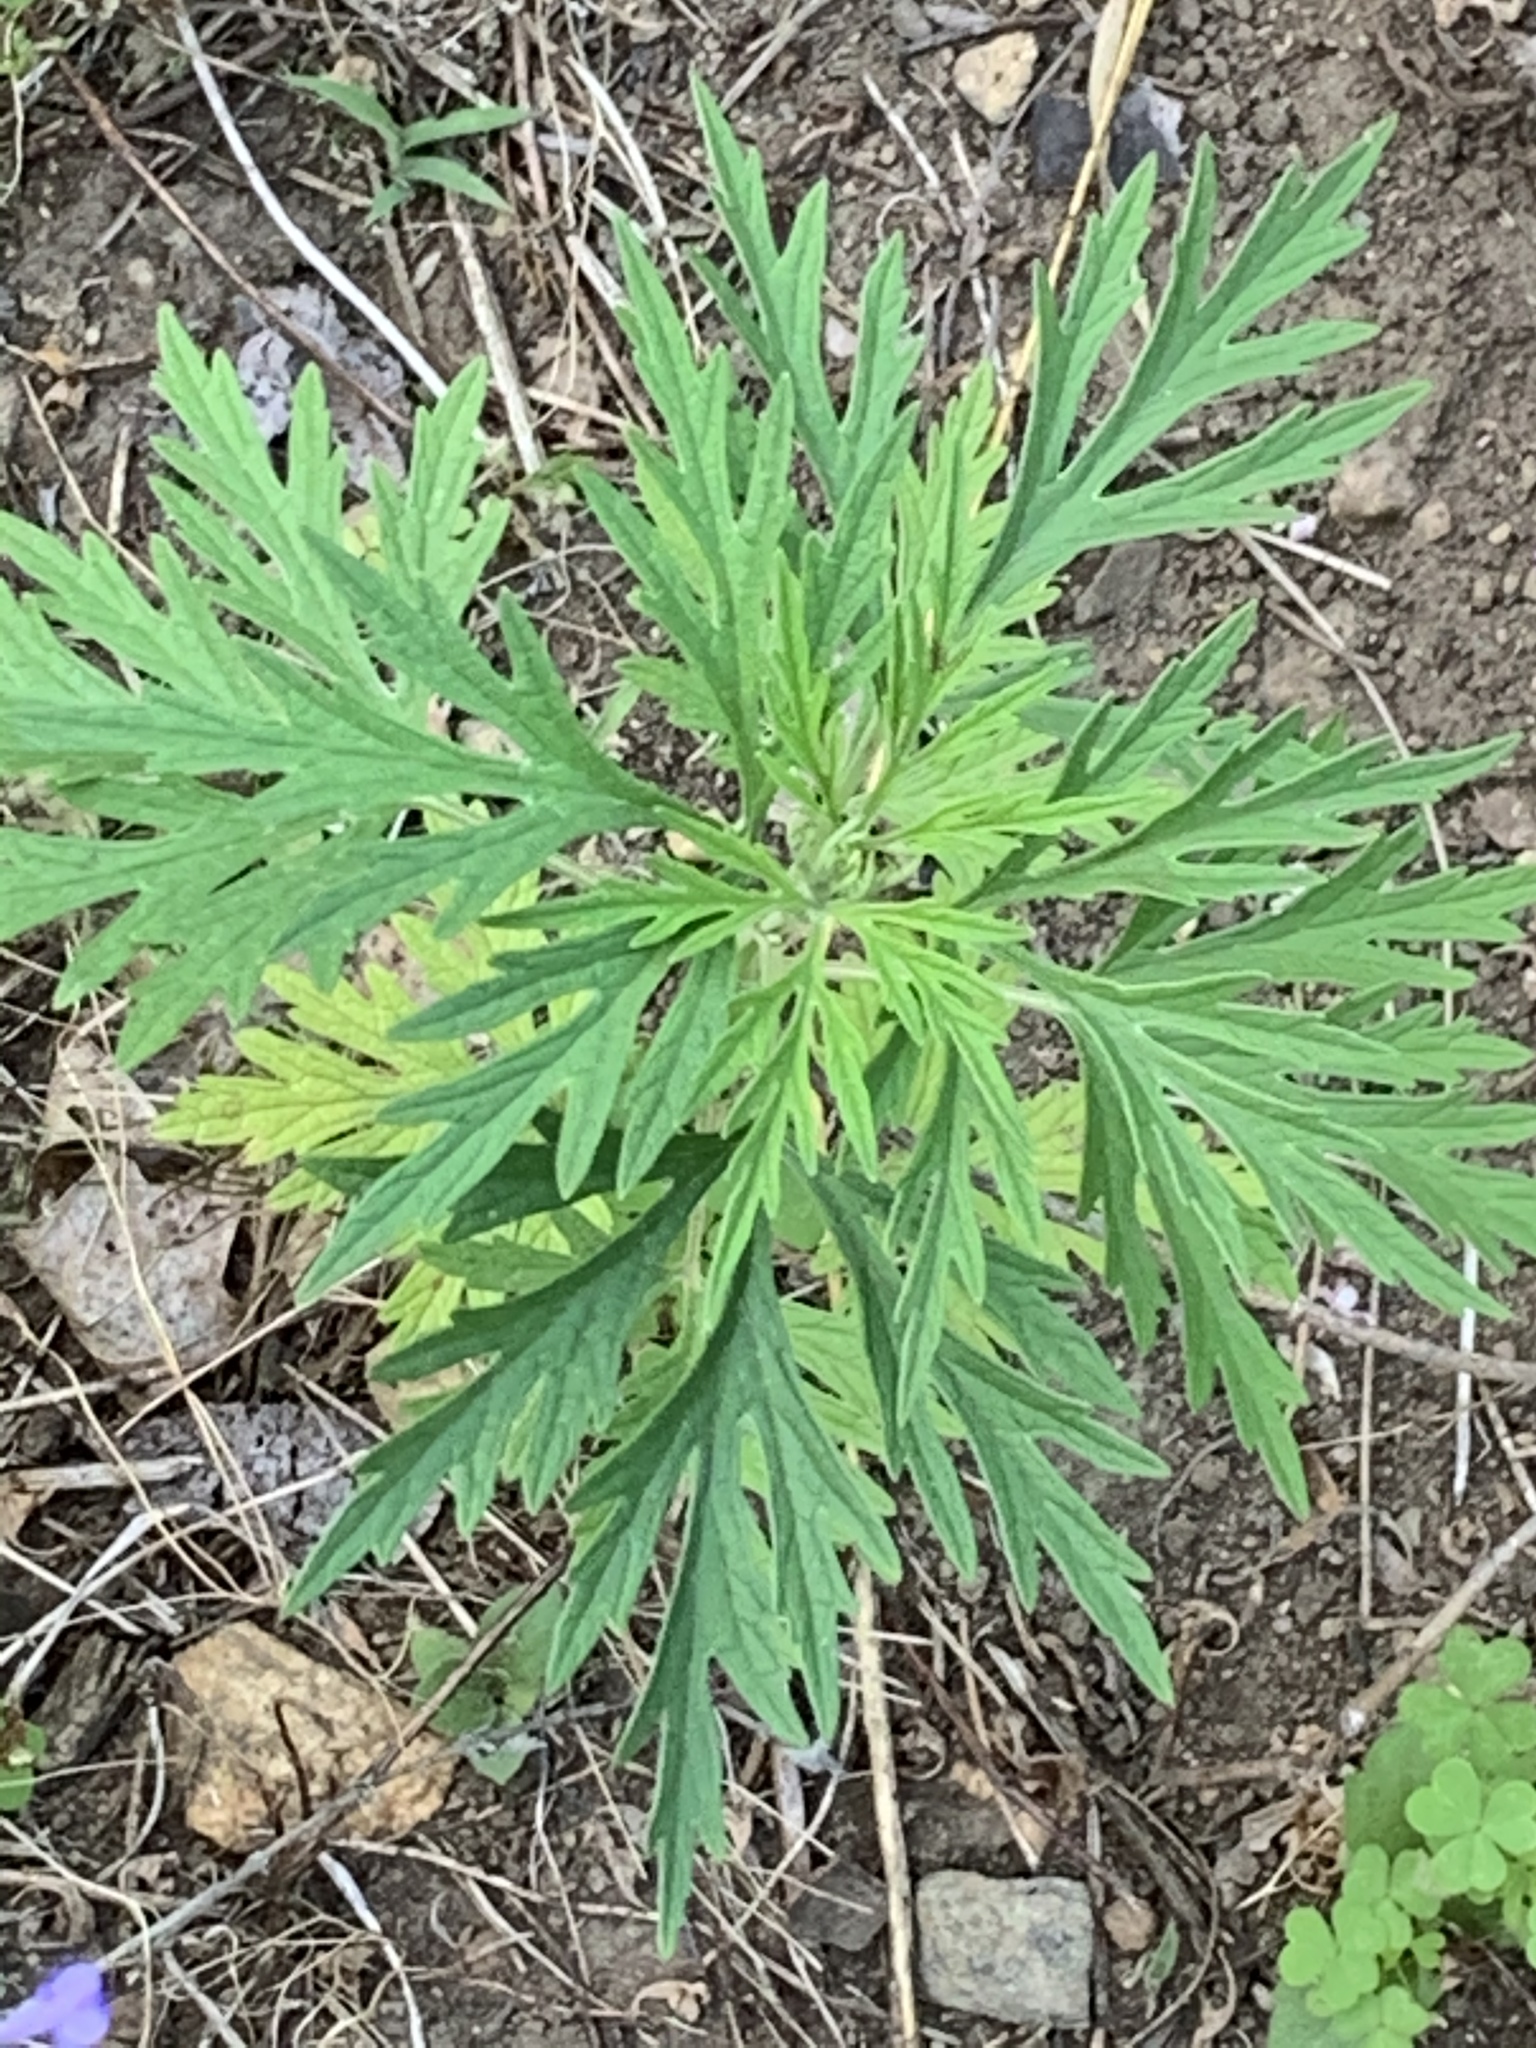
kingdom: Plantae
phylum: Tracheophyta
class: Magnoliopsida
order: Asterales
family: Asteraceae
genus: Artemisia
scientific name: Artemisia vulgaris
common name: Mugwort
